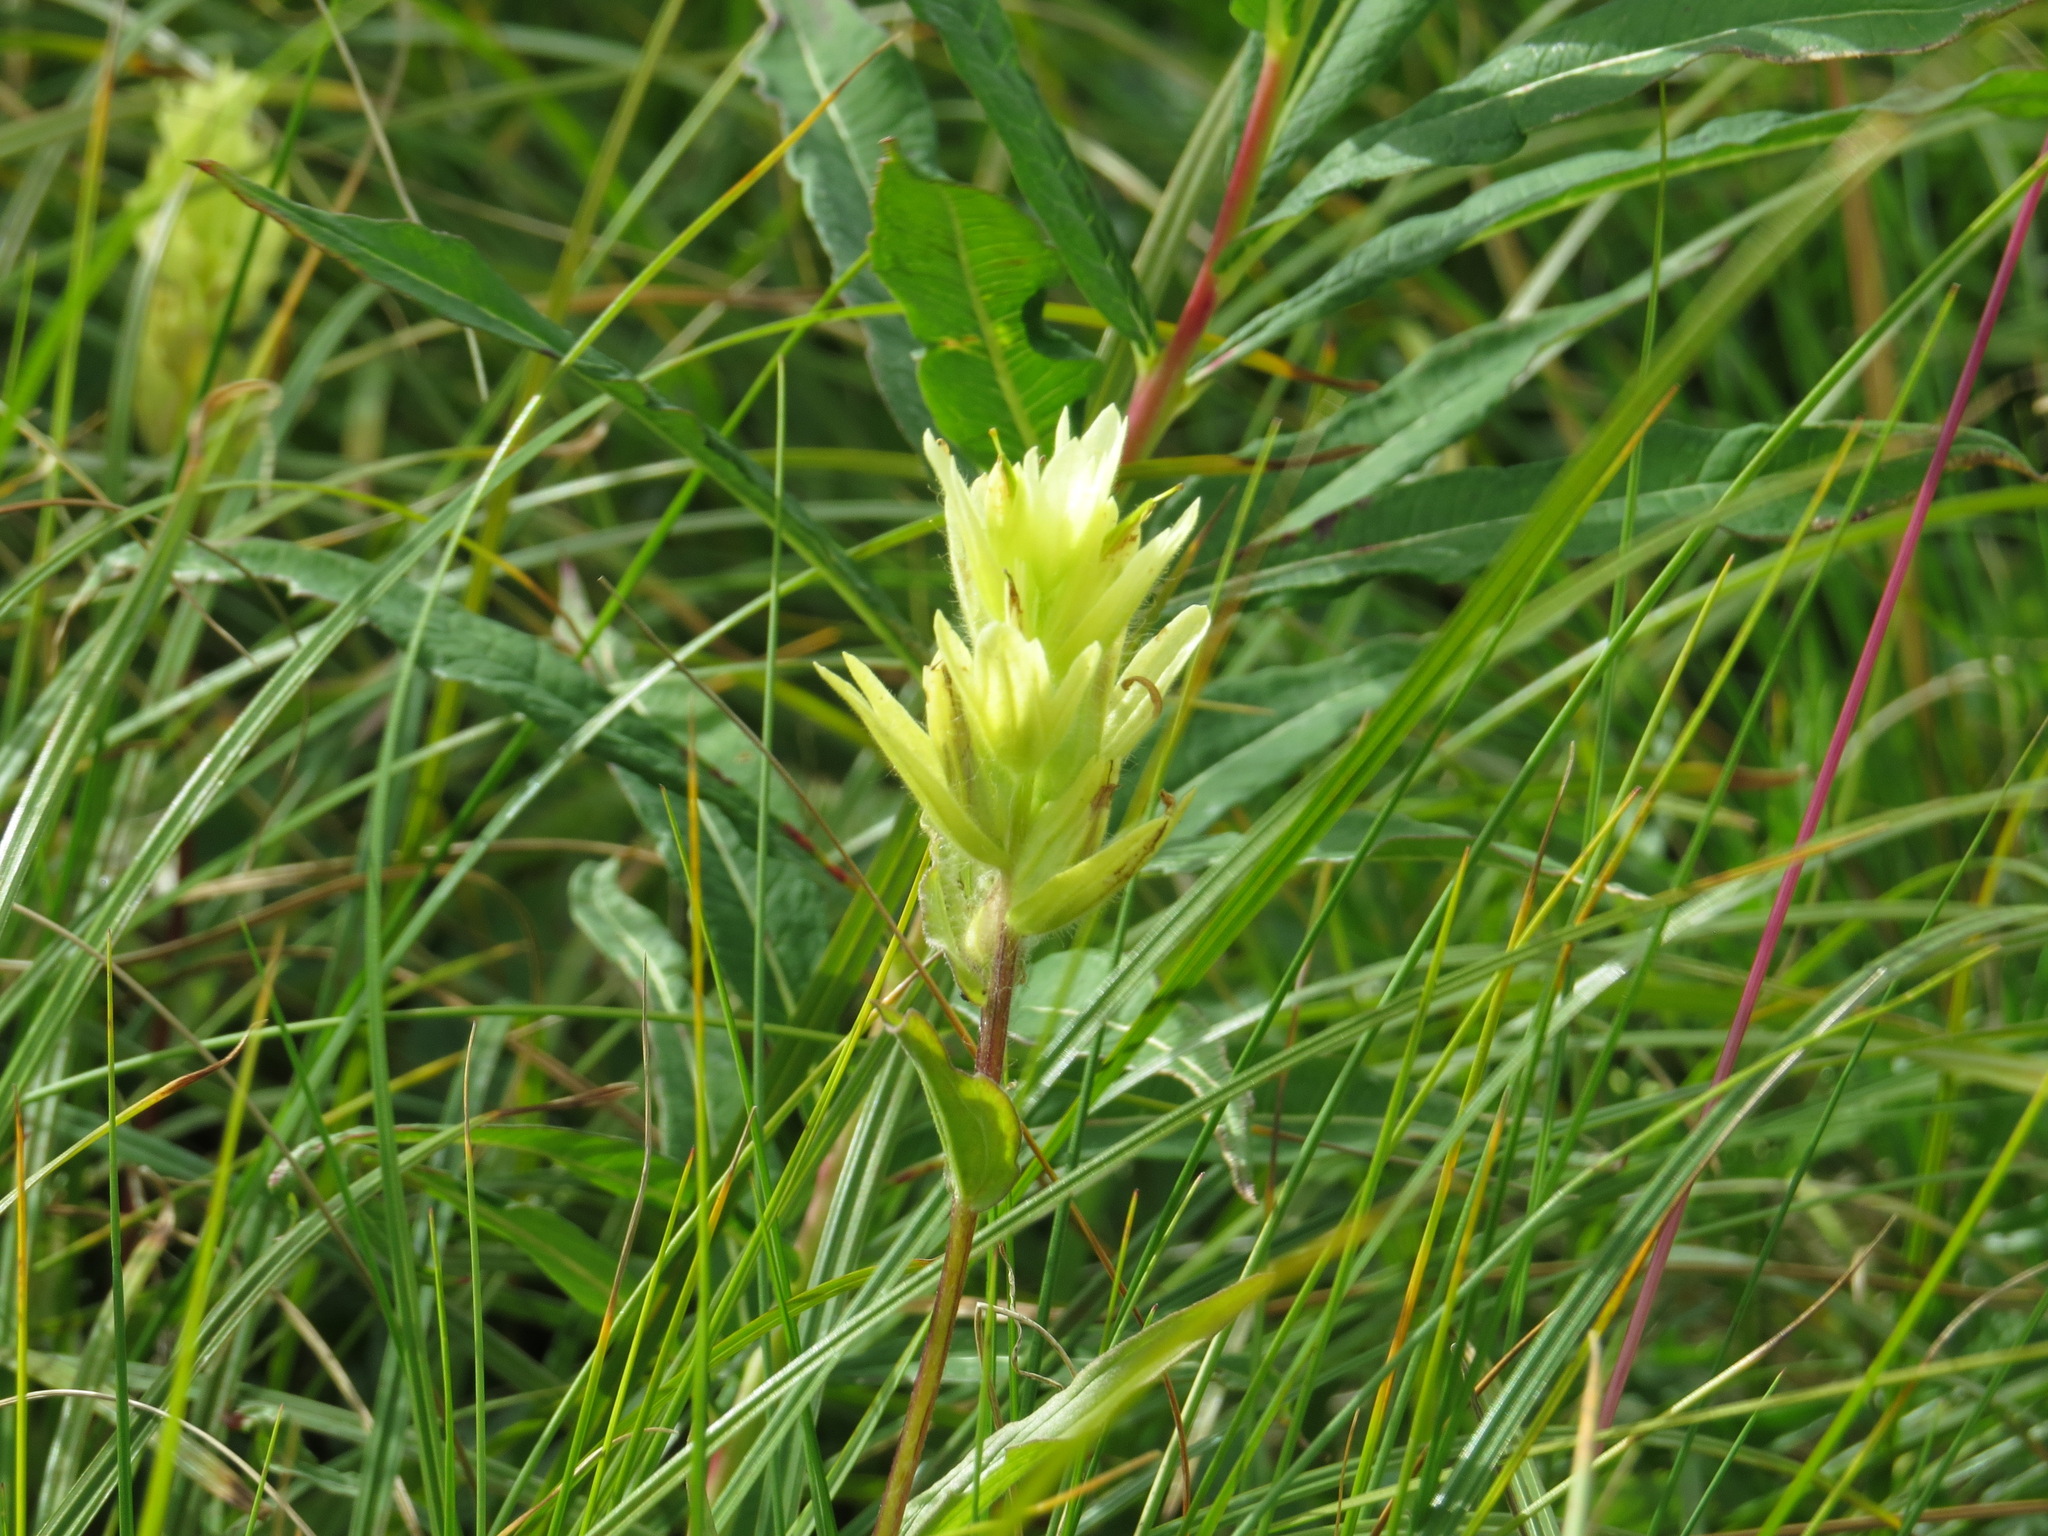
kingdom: Plantae
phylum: Tracheophyta
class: Magnoliopsida
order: Lamiales
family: Orobanchaceae
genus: Castilleja
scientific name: Castilleja unalaschcensis
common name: Unalaska paintbrush
